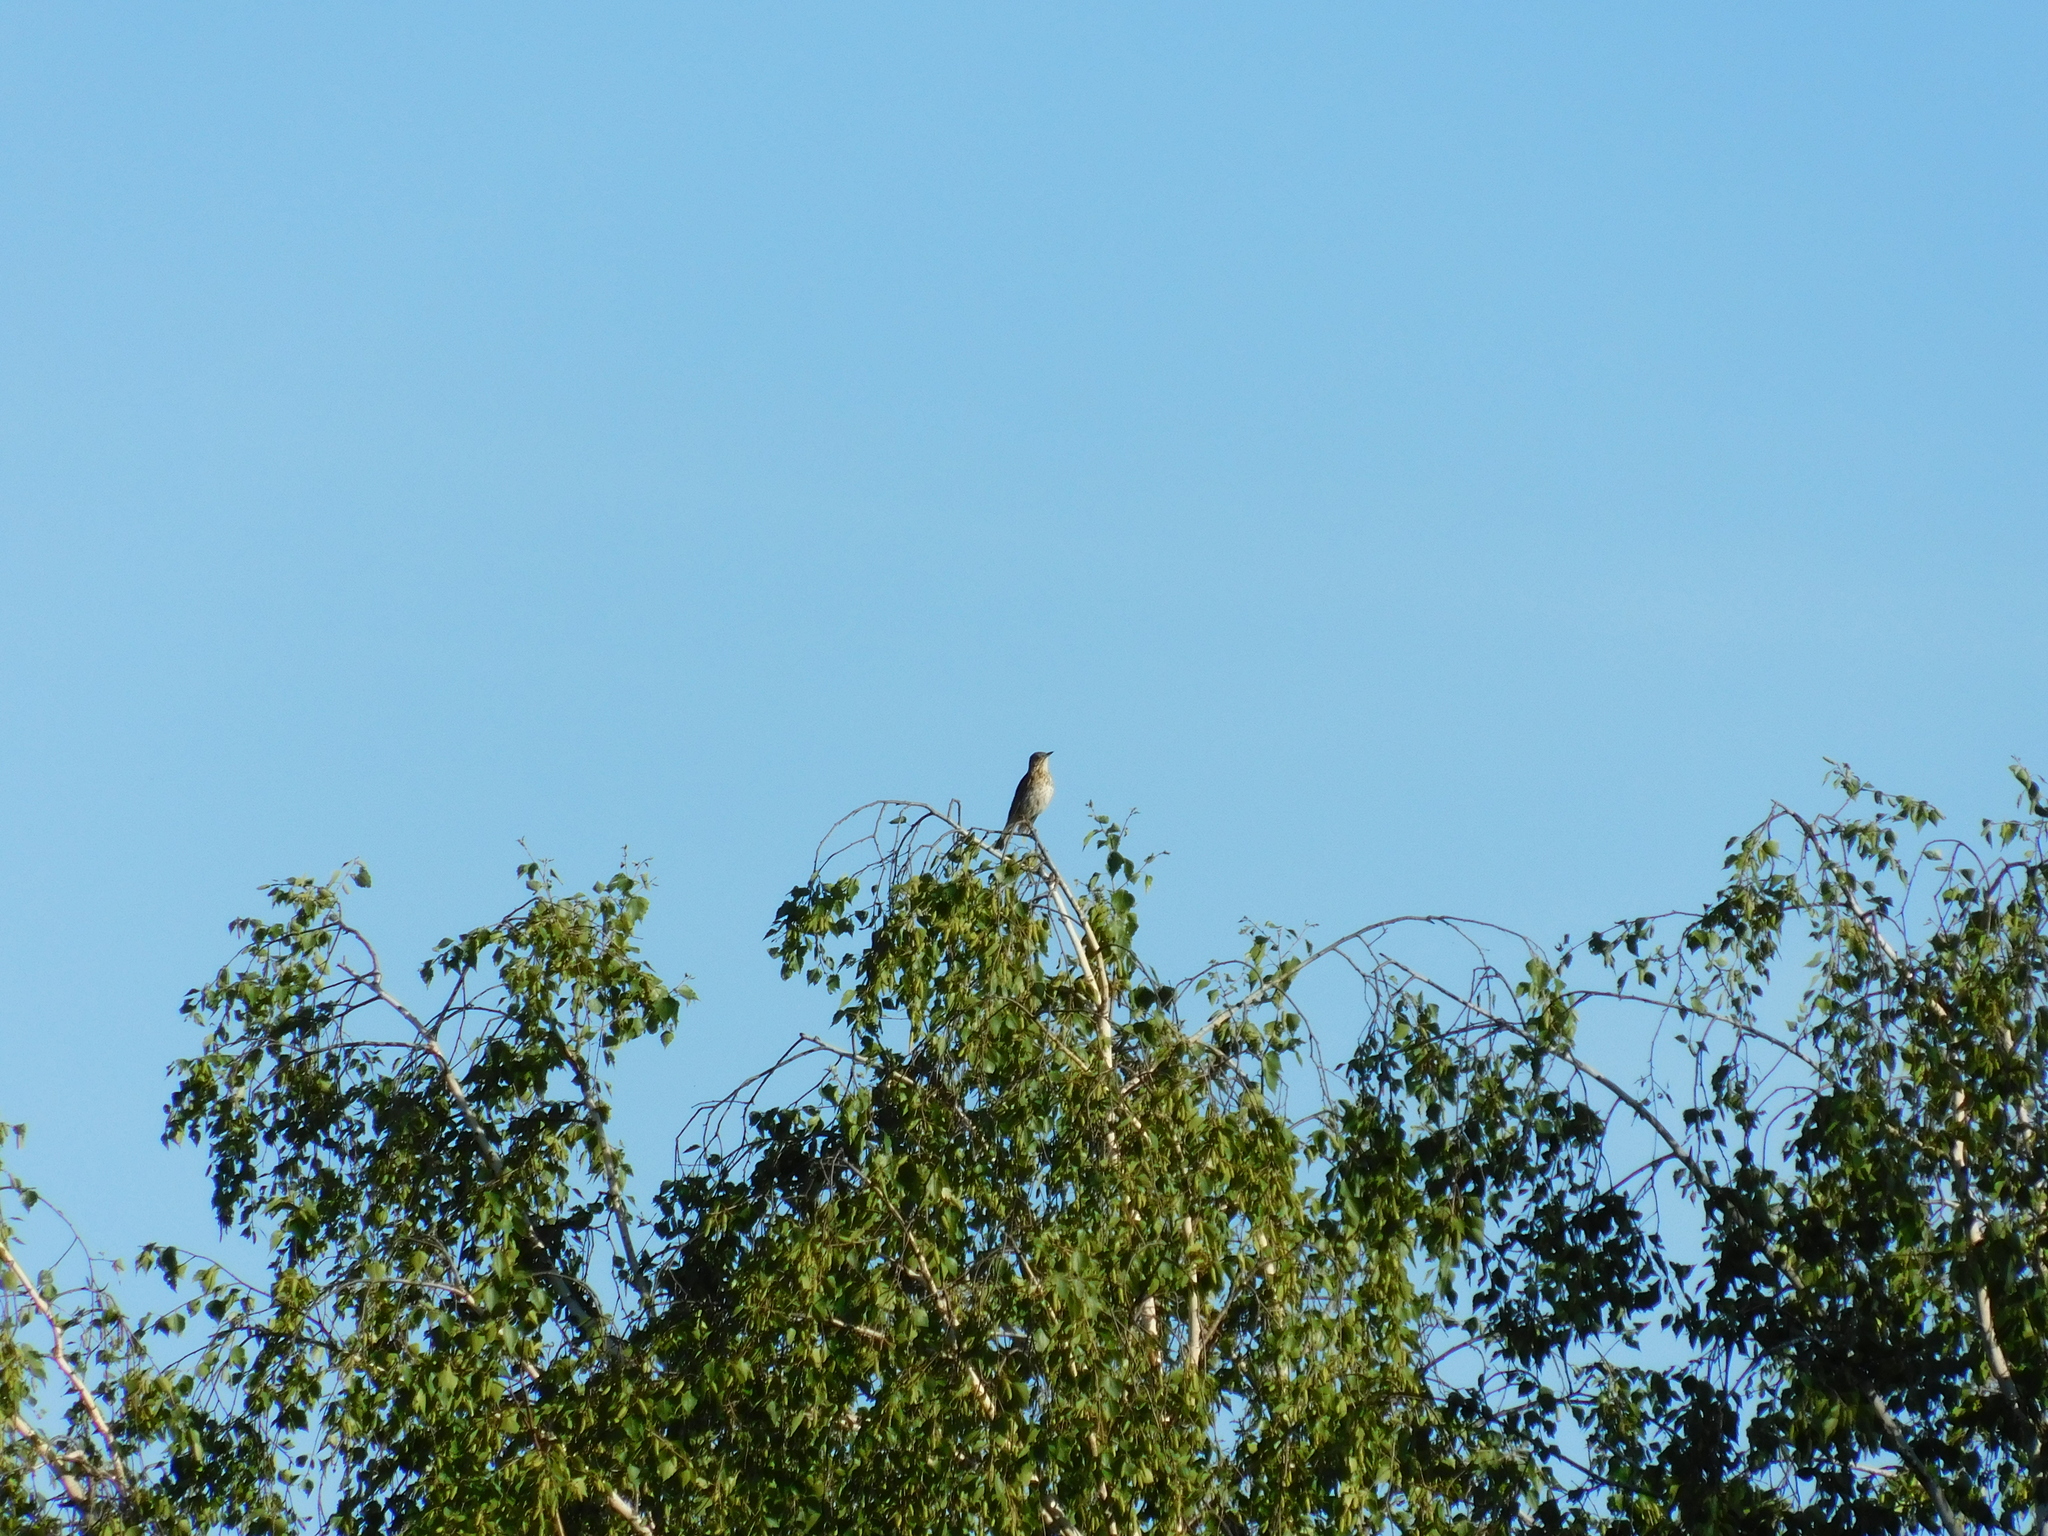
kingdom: Animalia
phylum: Chordata
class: Aves
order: Passeriformes
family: Turdidae
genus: Turdus
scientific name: Turdus philomelos
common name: Song thrush
